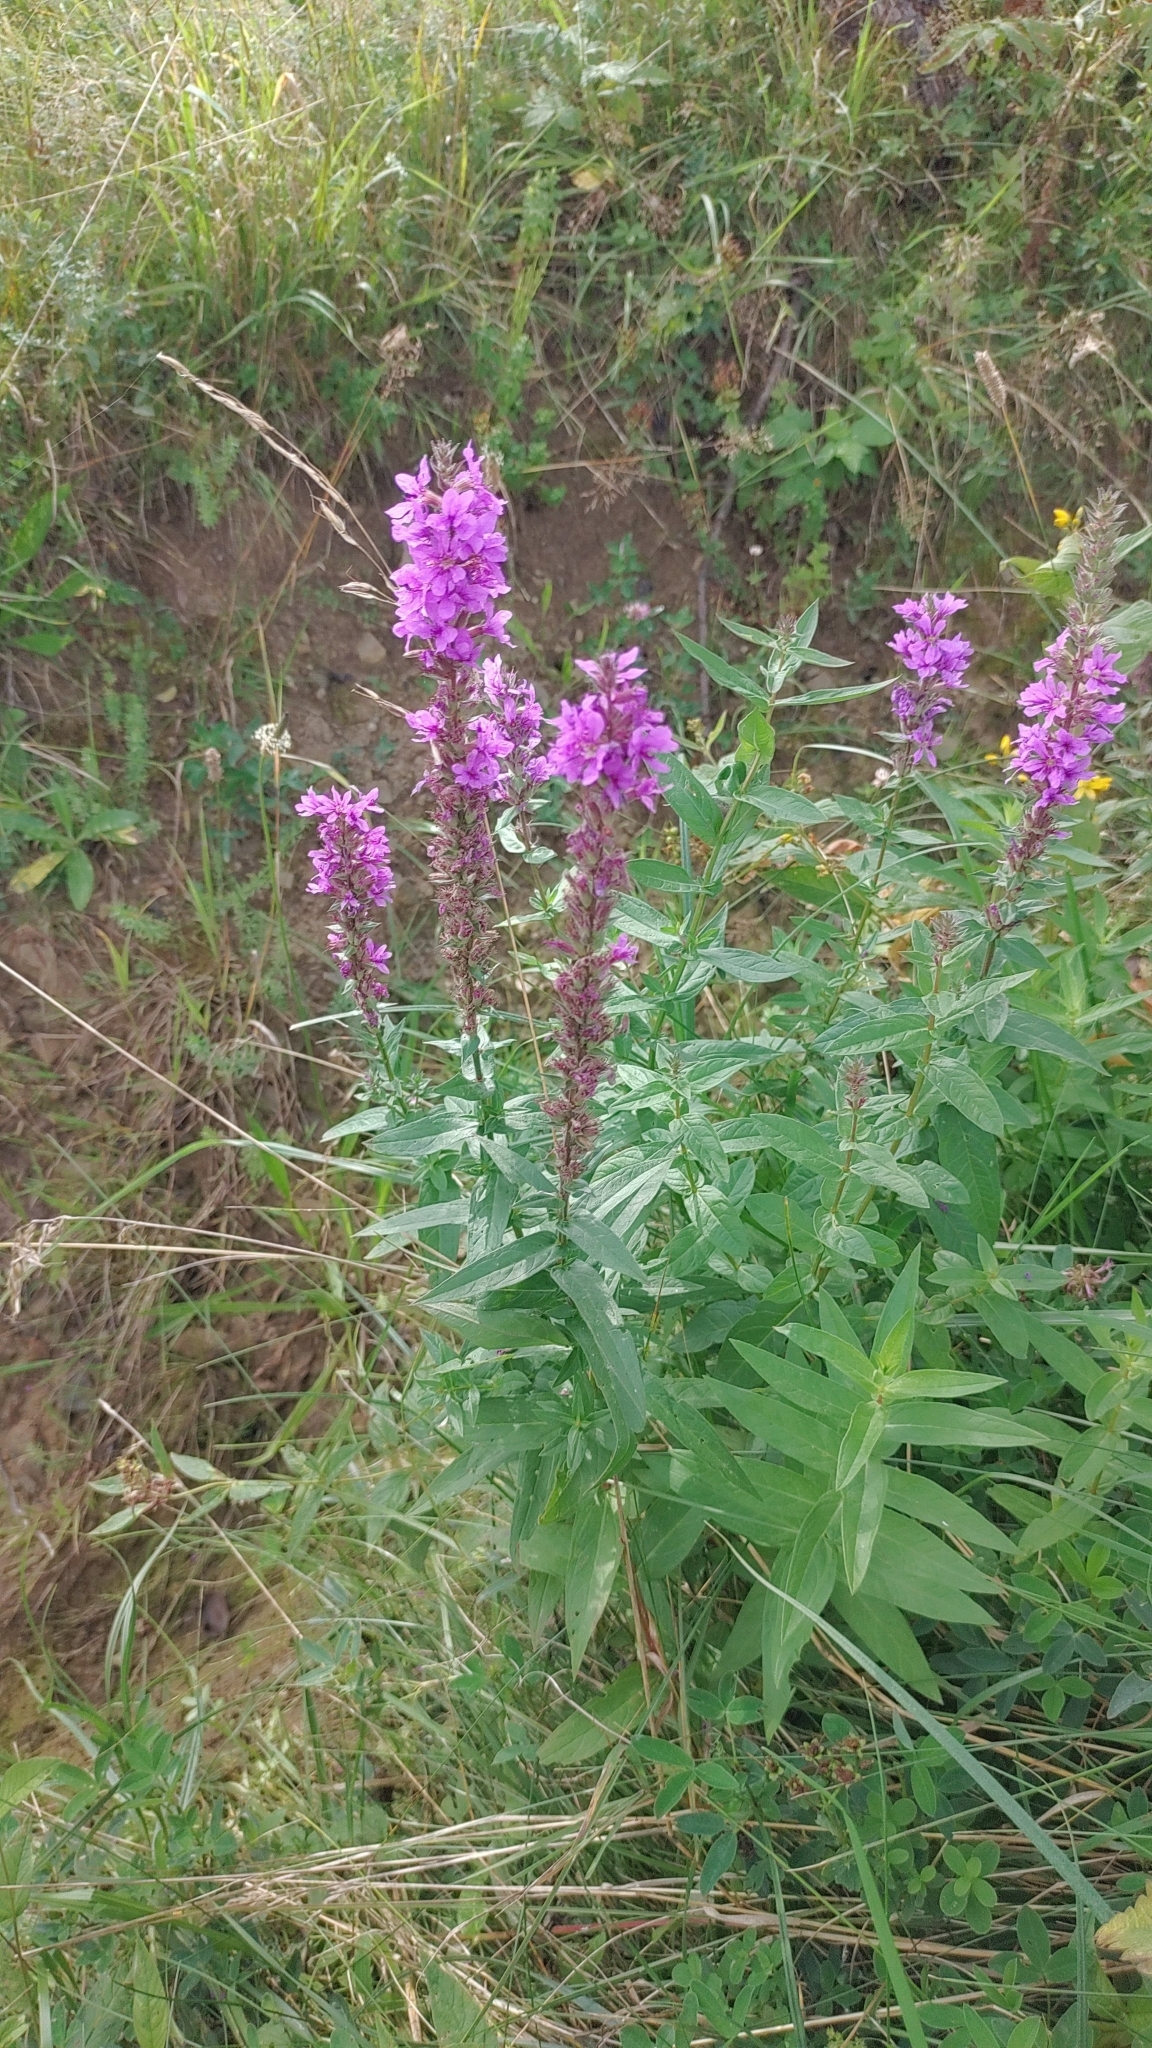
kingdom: Plantae
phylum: Tracheophyta
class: Magnoliopsida
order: Myrtales
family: Lythraceae
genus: Lythrum
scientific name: Lythrum salicaria
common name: Purple loosestrife
